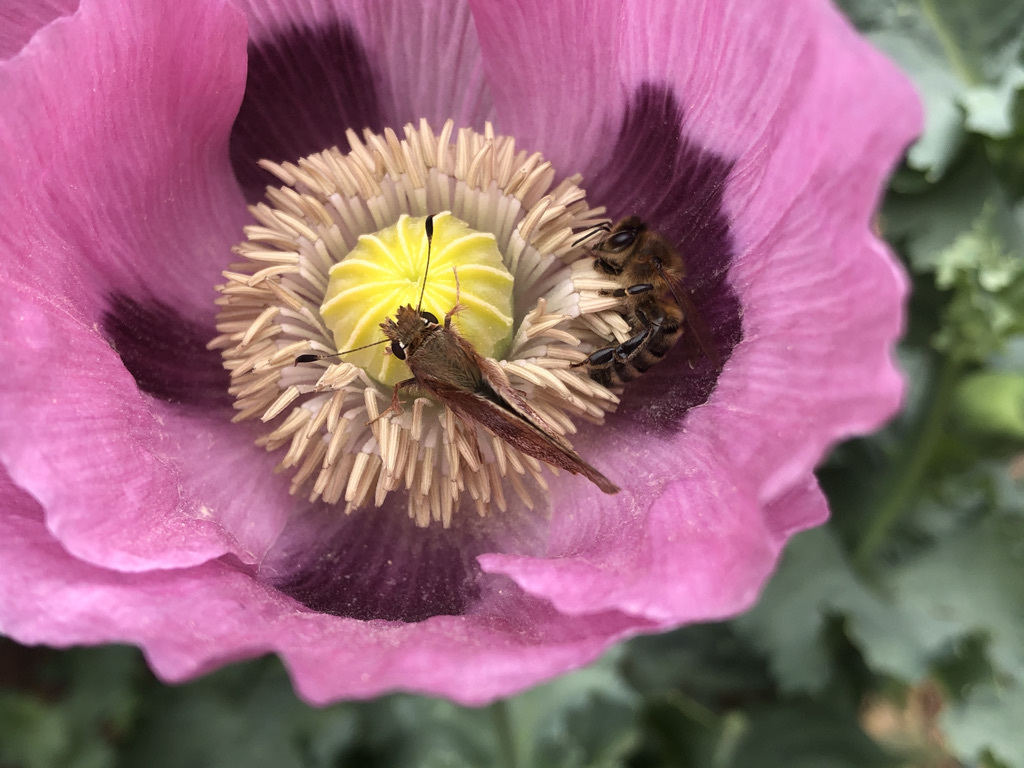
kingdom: Animalia
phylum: Arthropoda
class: Insecta
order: Lepidoptera
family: Hesperiidae
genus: Lon
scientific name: Lon melane
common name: Umber skipper
